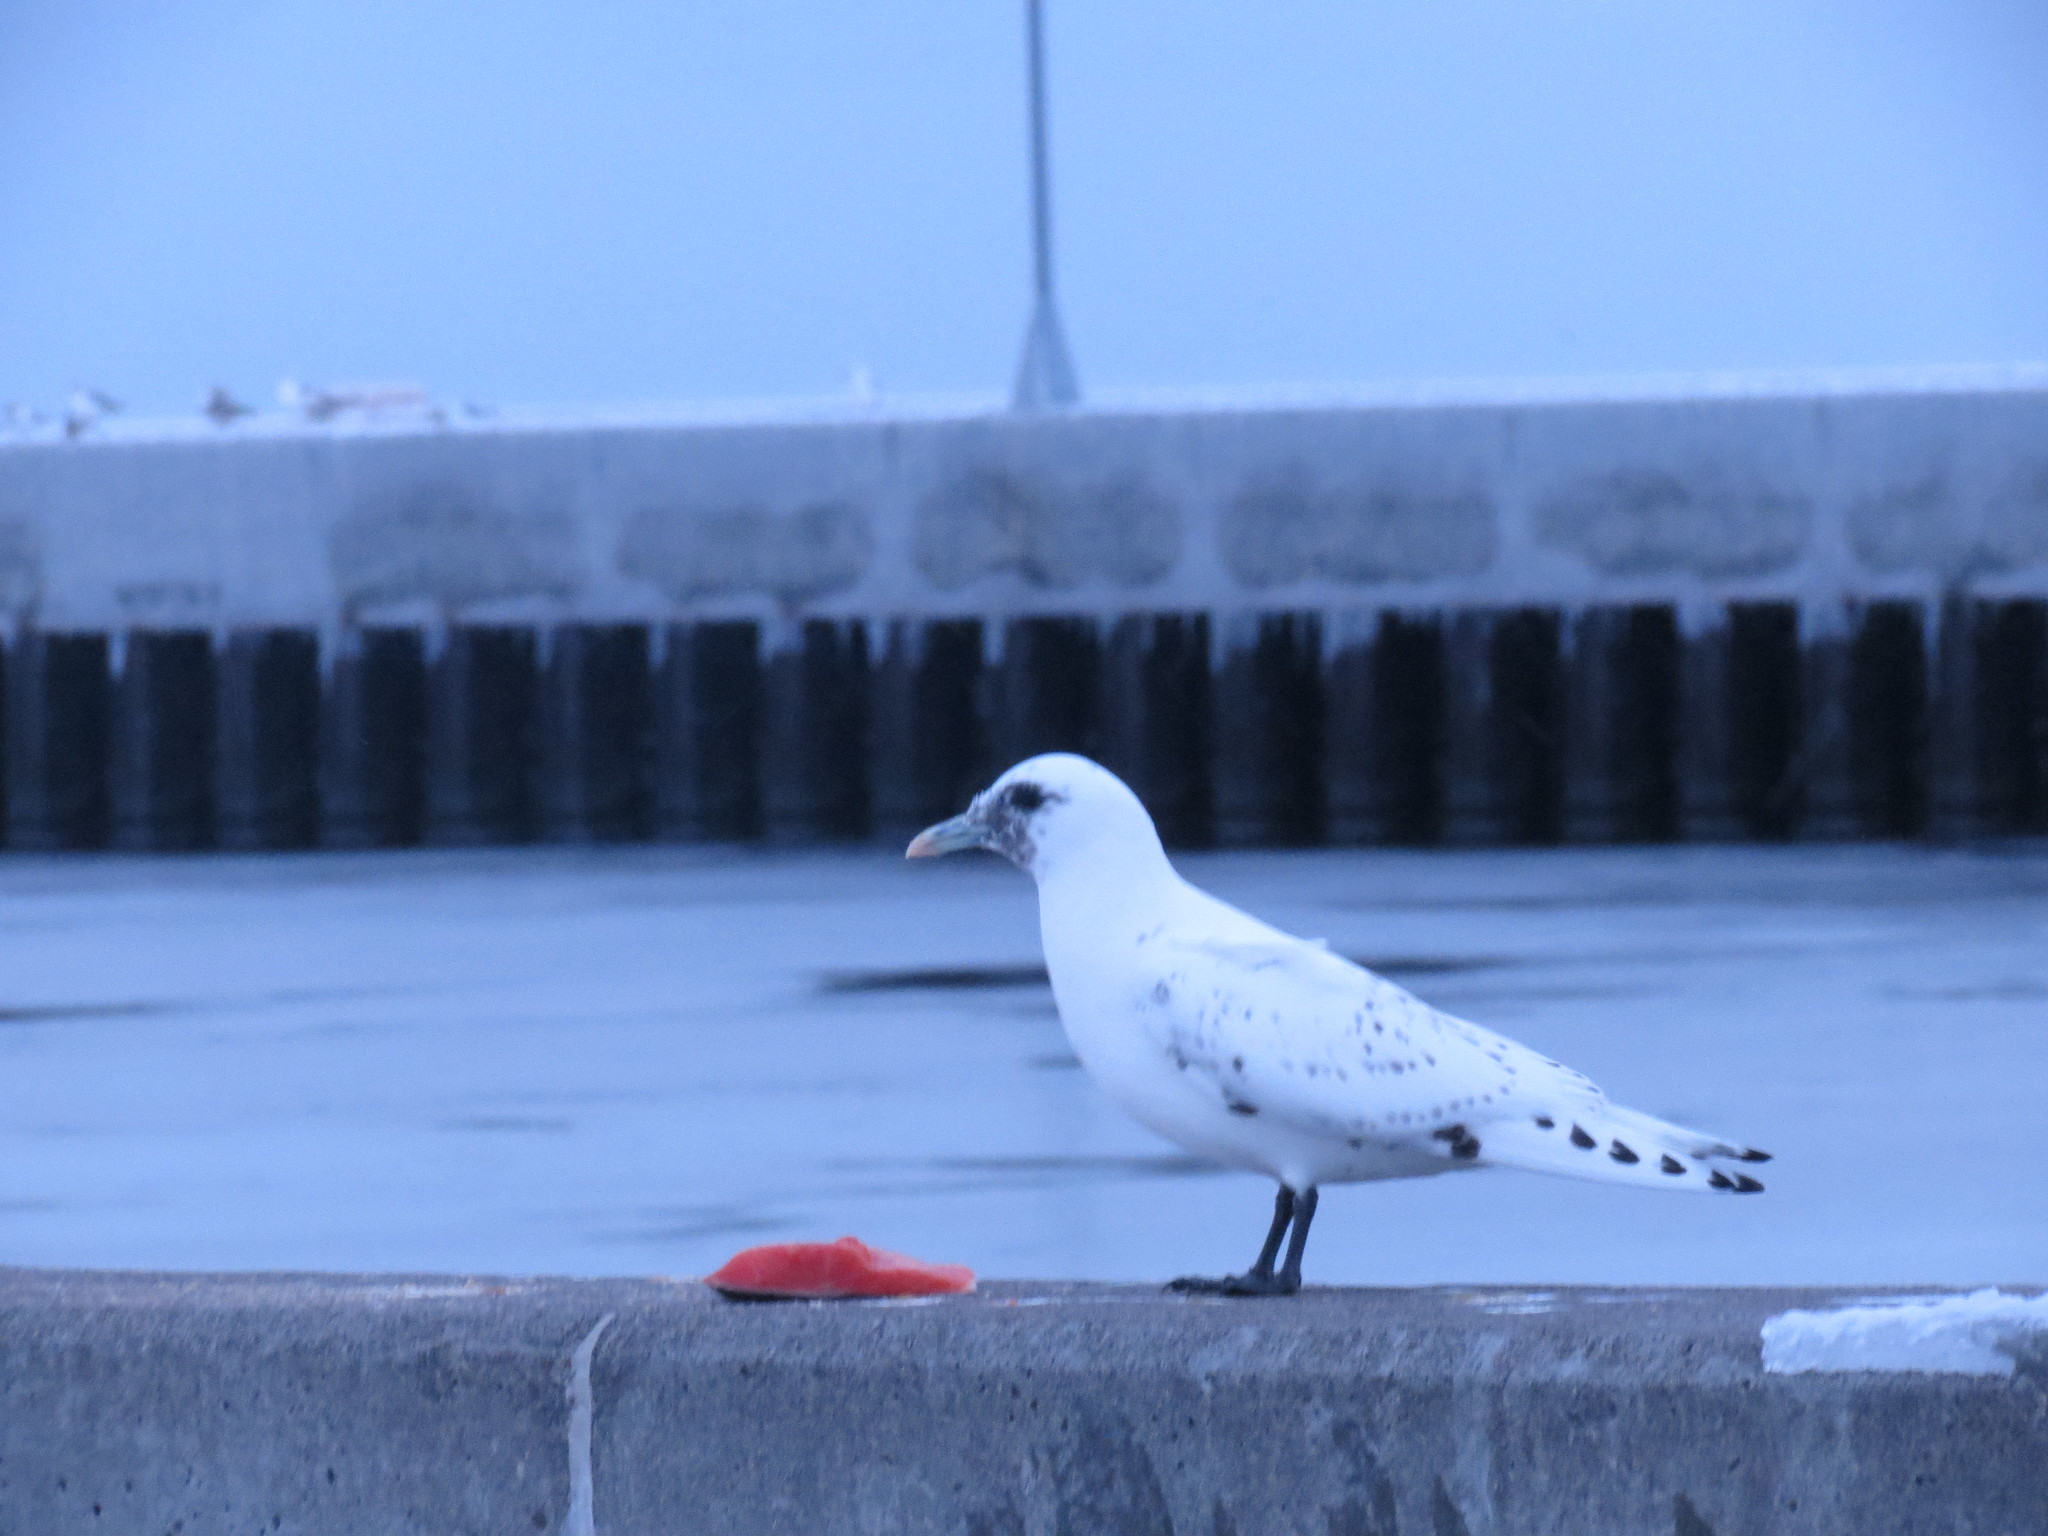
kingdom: Animalia
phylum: Chordata
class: Aves
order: Charadriiformes
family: Laridae
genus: Pagophila
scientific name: Pagophila eburnea
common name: Ivory gull
